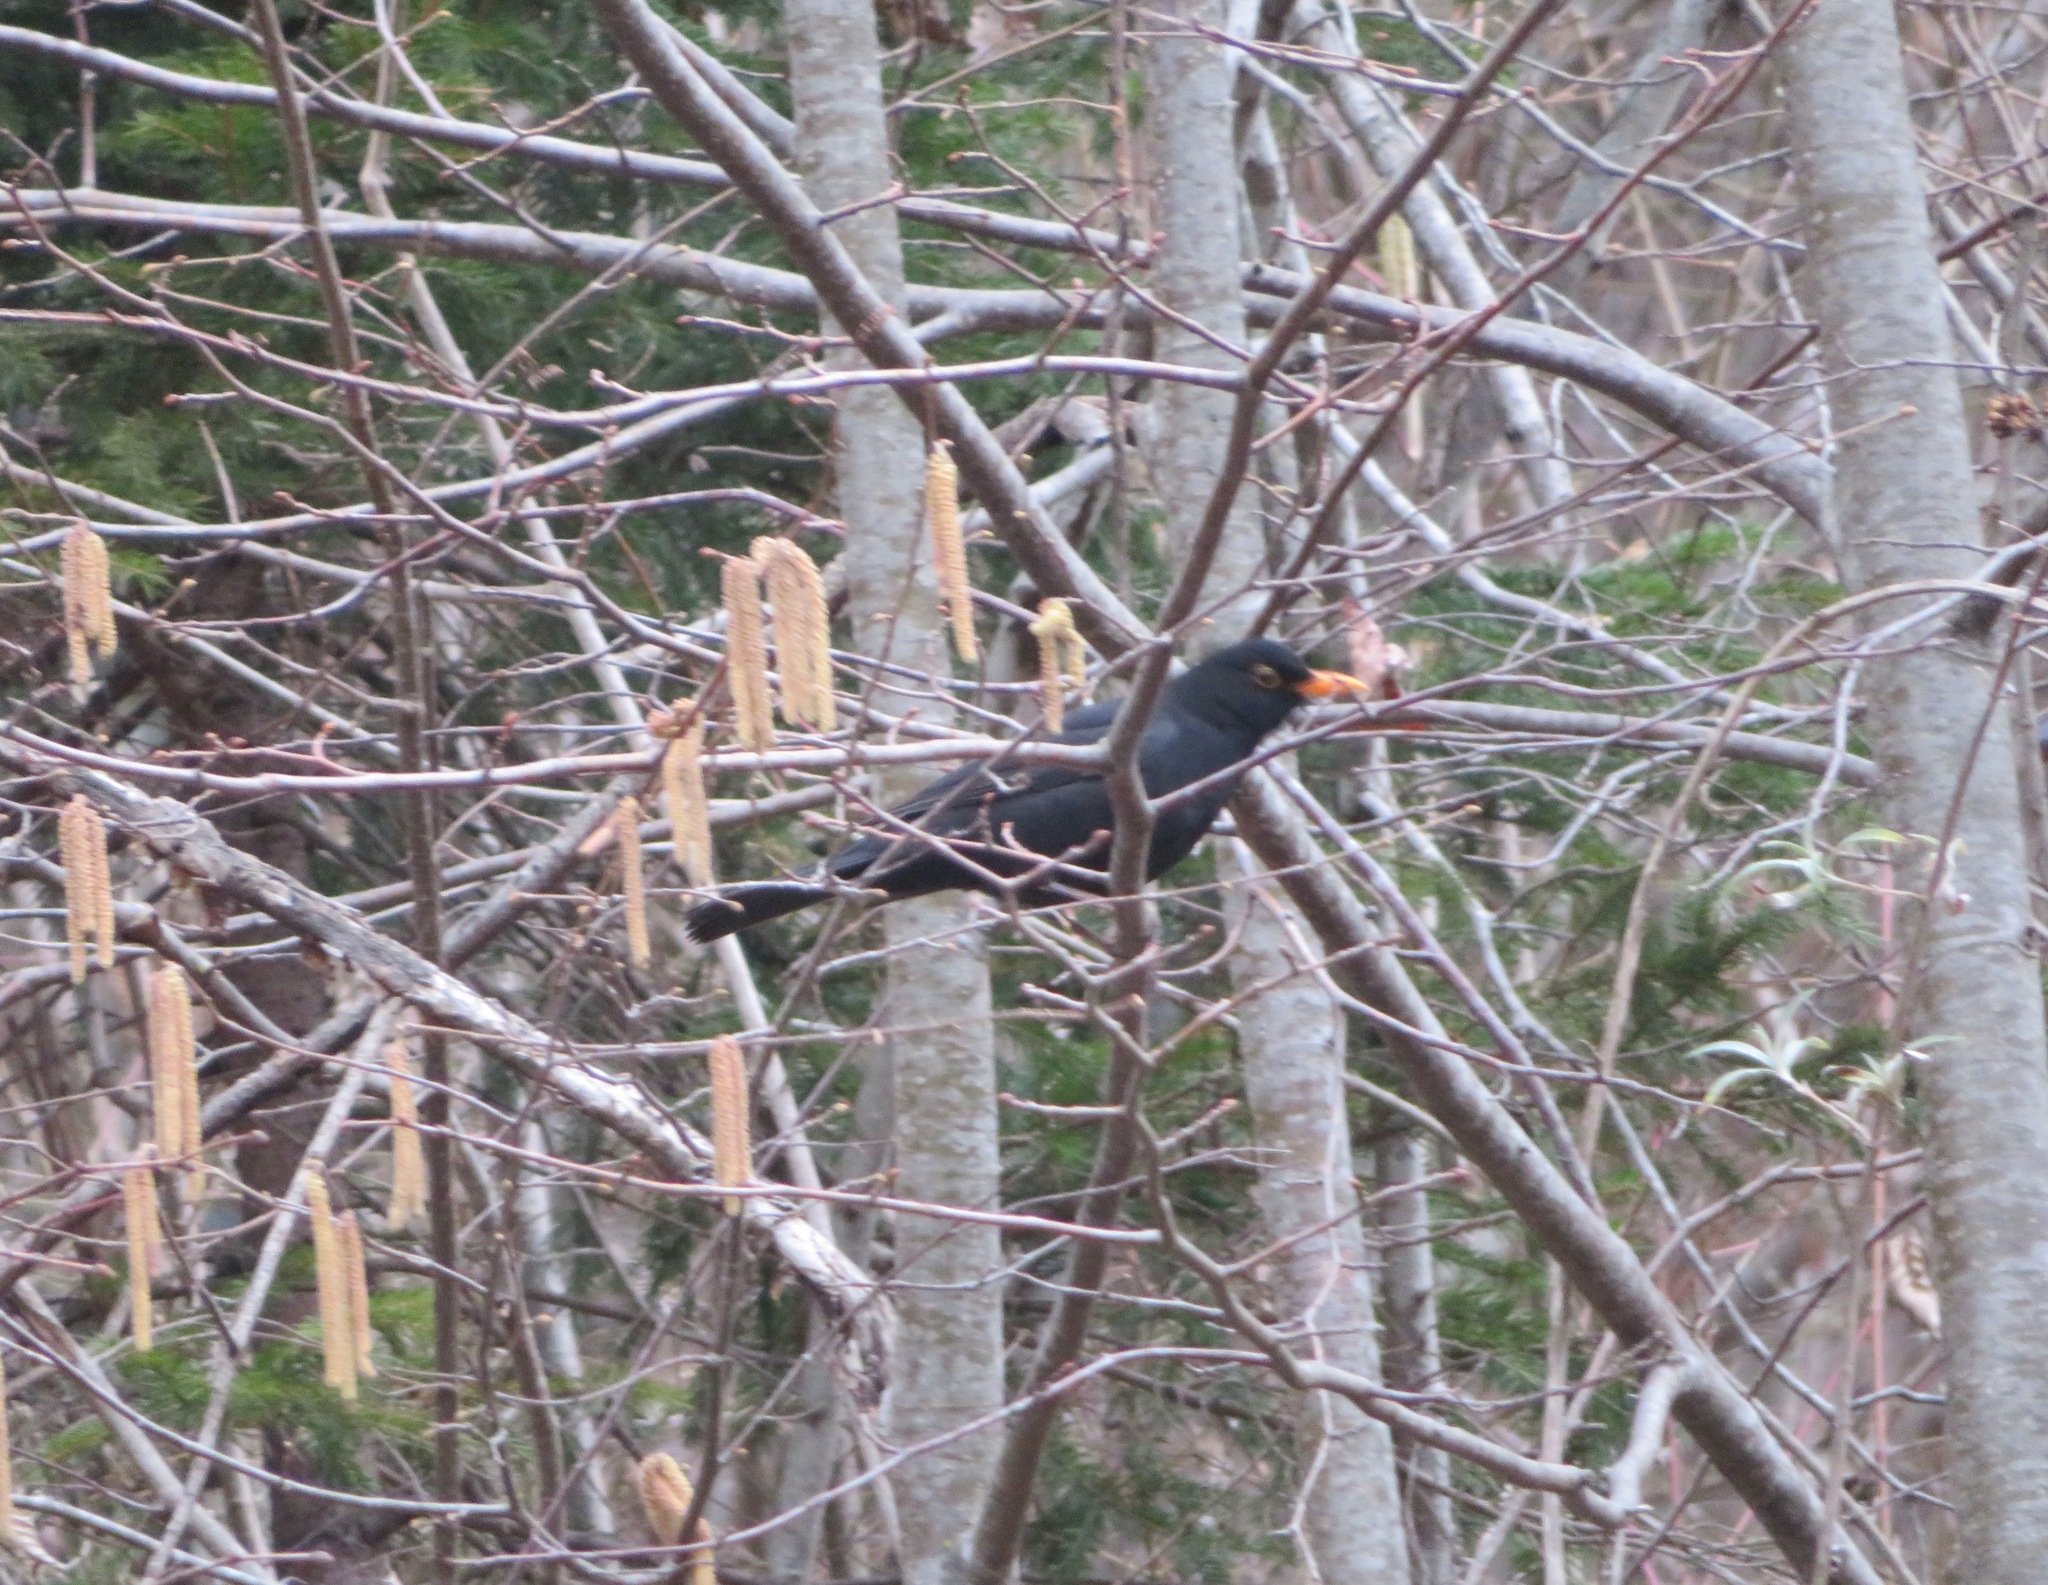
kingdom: Animalia
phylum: Chordata
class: Aves
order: Passeriformes
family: Turdidae
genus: Turdus
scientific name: Turdus merula
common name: Common blackbird
